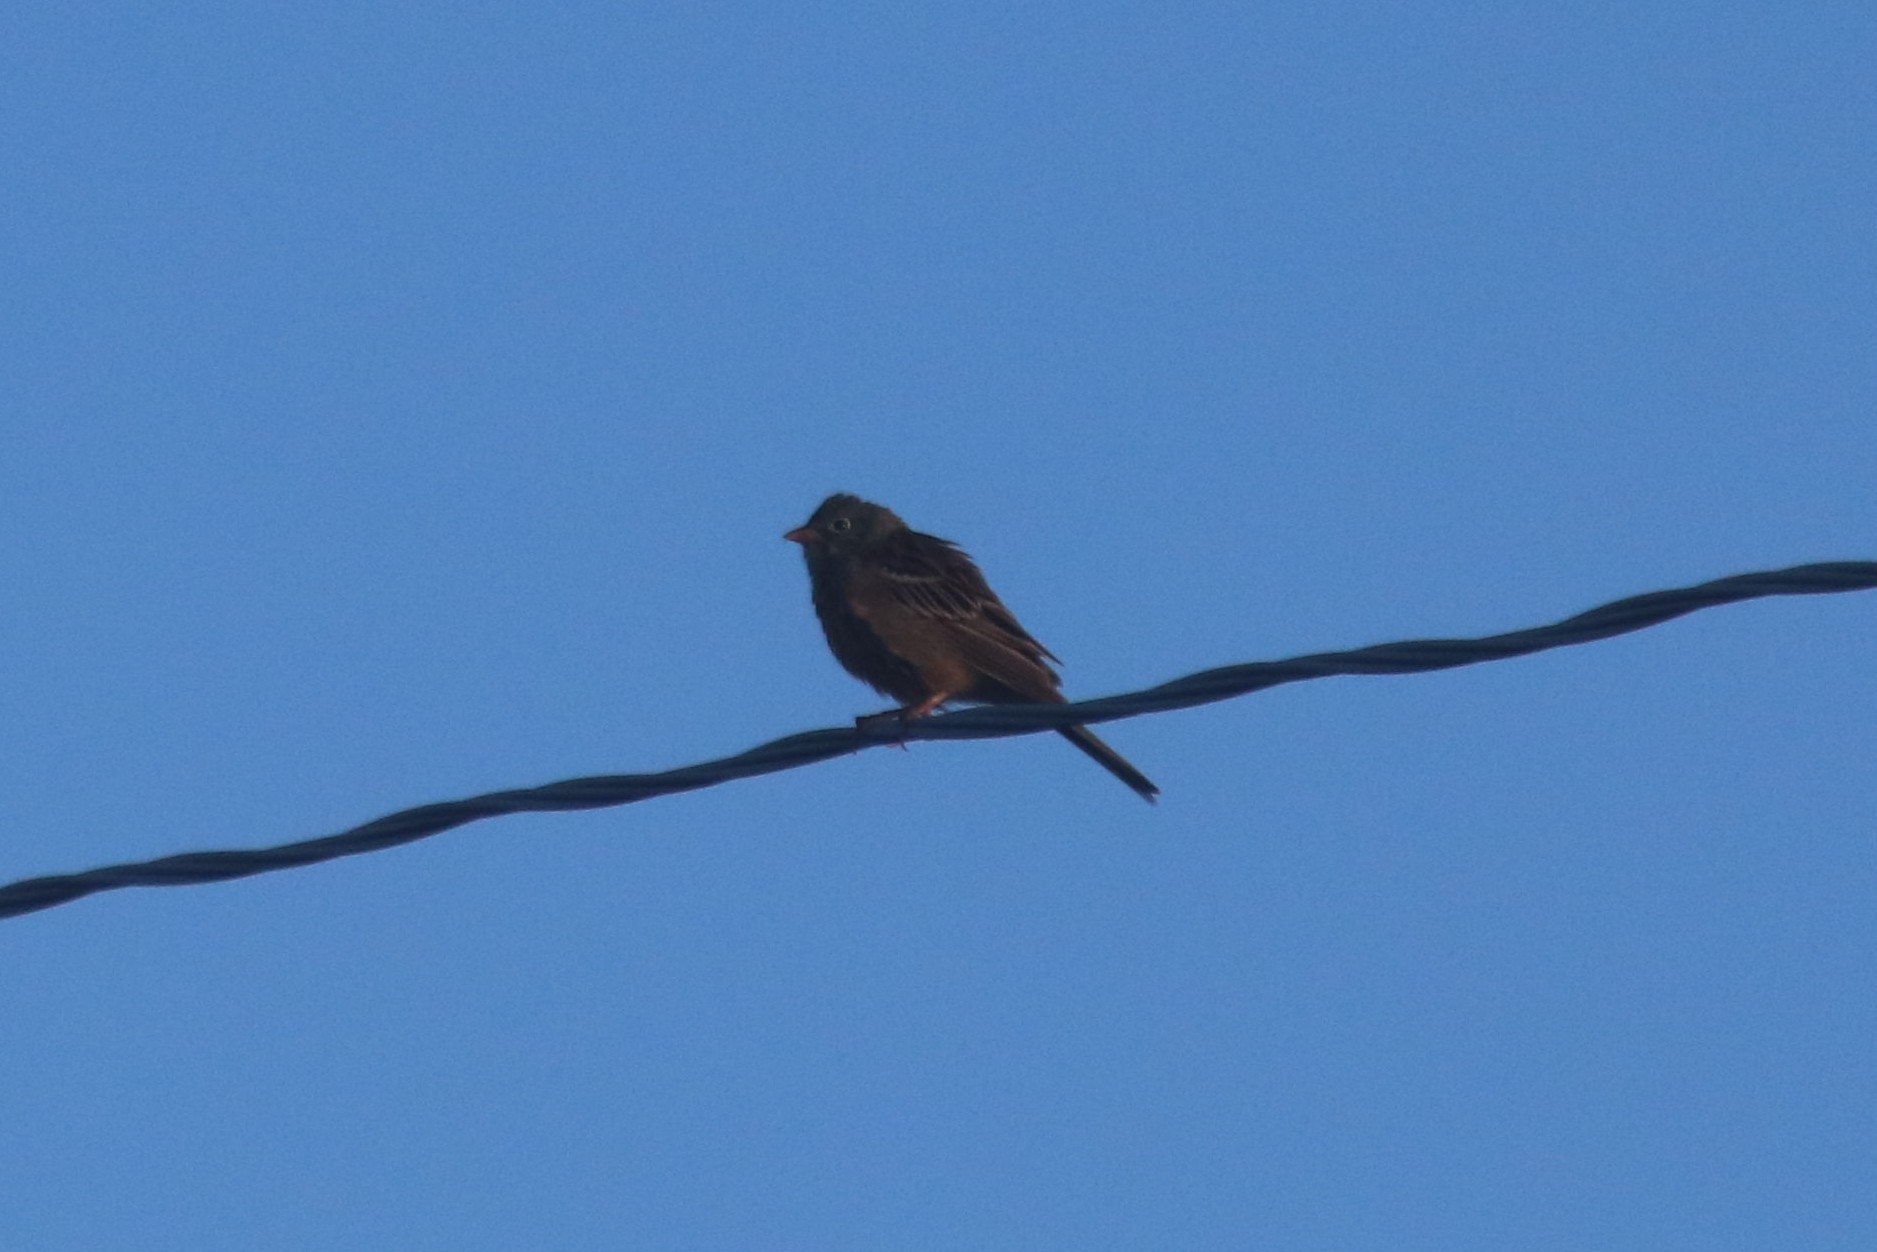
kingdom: Animalia
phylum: Chordata
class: Aves
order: Passeriformes
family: Emberizidae
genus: Emberiza
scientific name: Emberiza hortulana
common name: Ortolan bunting
